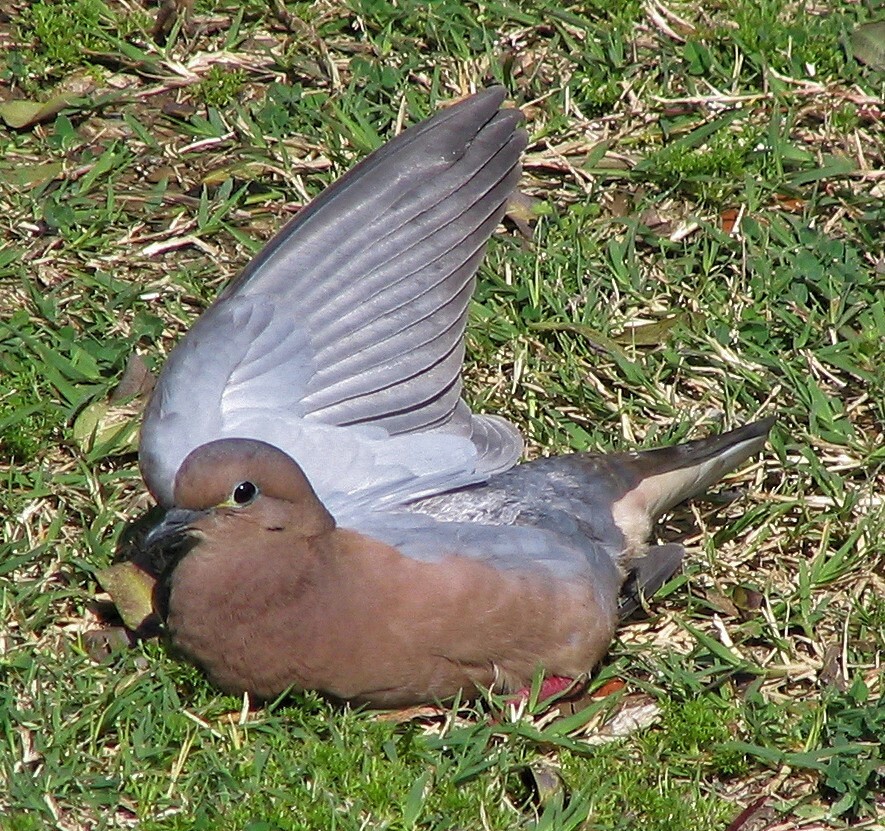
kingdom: Animalia
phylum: Chordata
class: Aves
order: Columbiformes
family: Columbidae
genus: Zenaida
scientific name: Zenaida auriculata
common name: Eared dove
